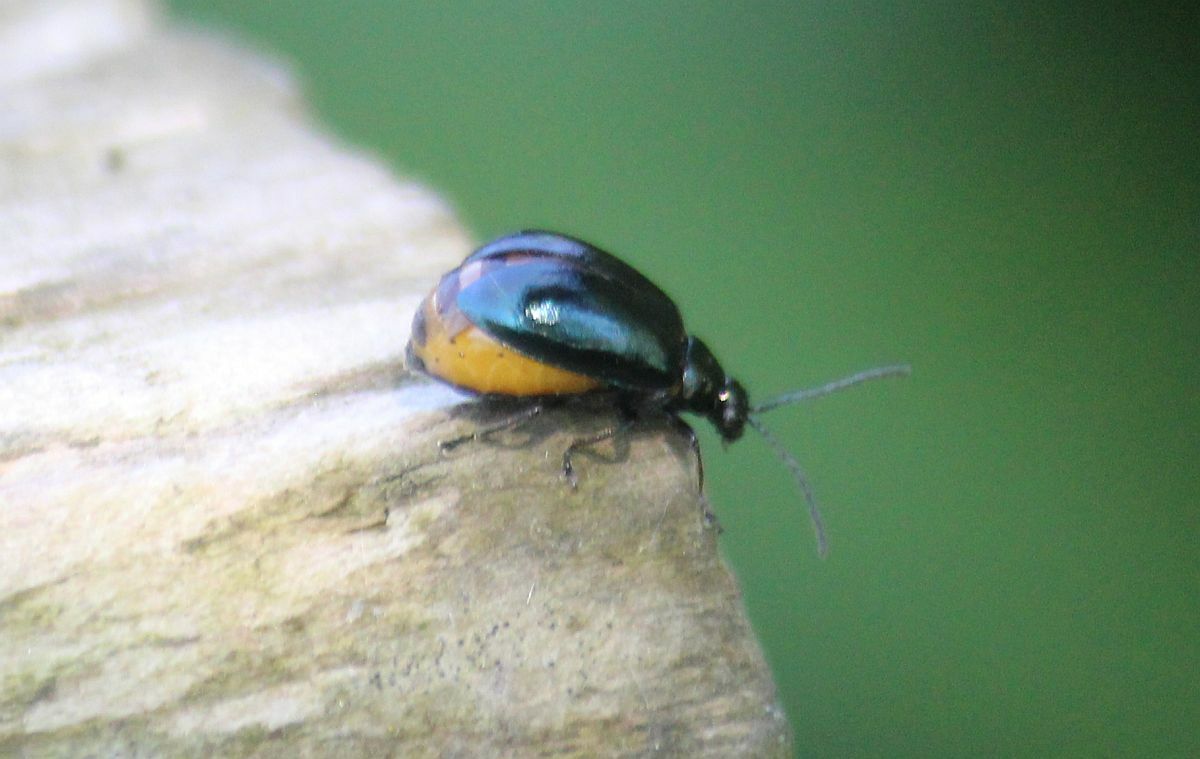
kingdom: Animalia
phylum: Arthropoda
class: Insecta
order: Coleoptera
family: Chrysomelidae
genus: Agelastica
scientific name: Agelastica alni
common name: Alder leaf beetle
